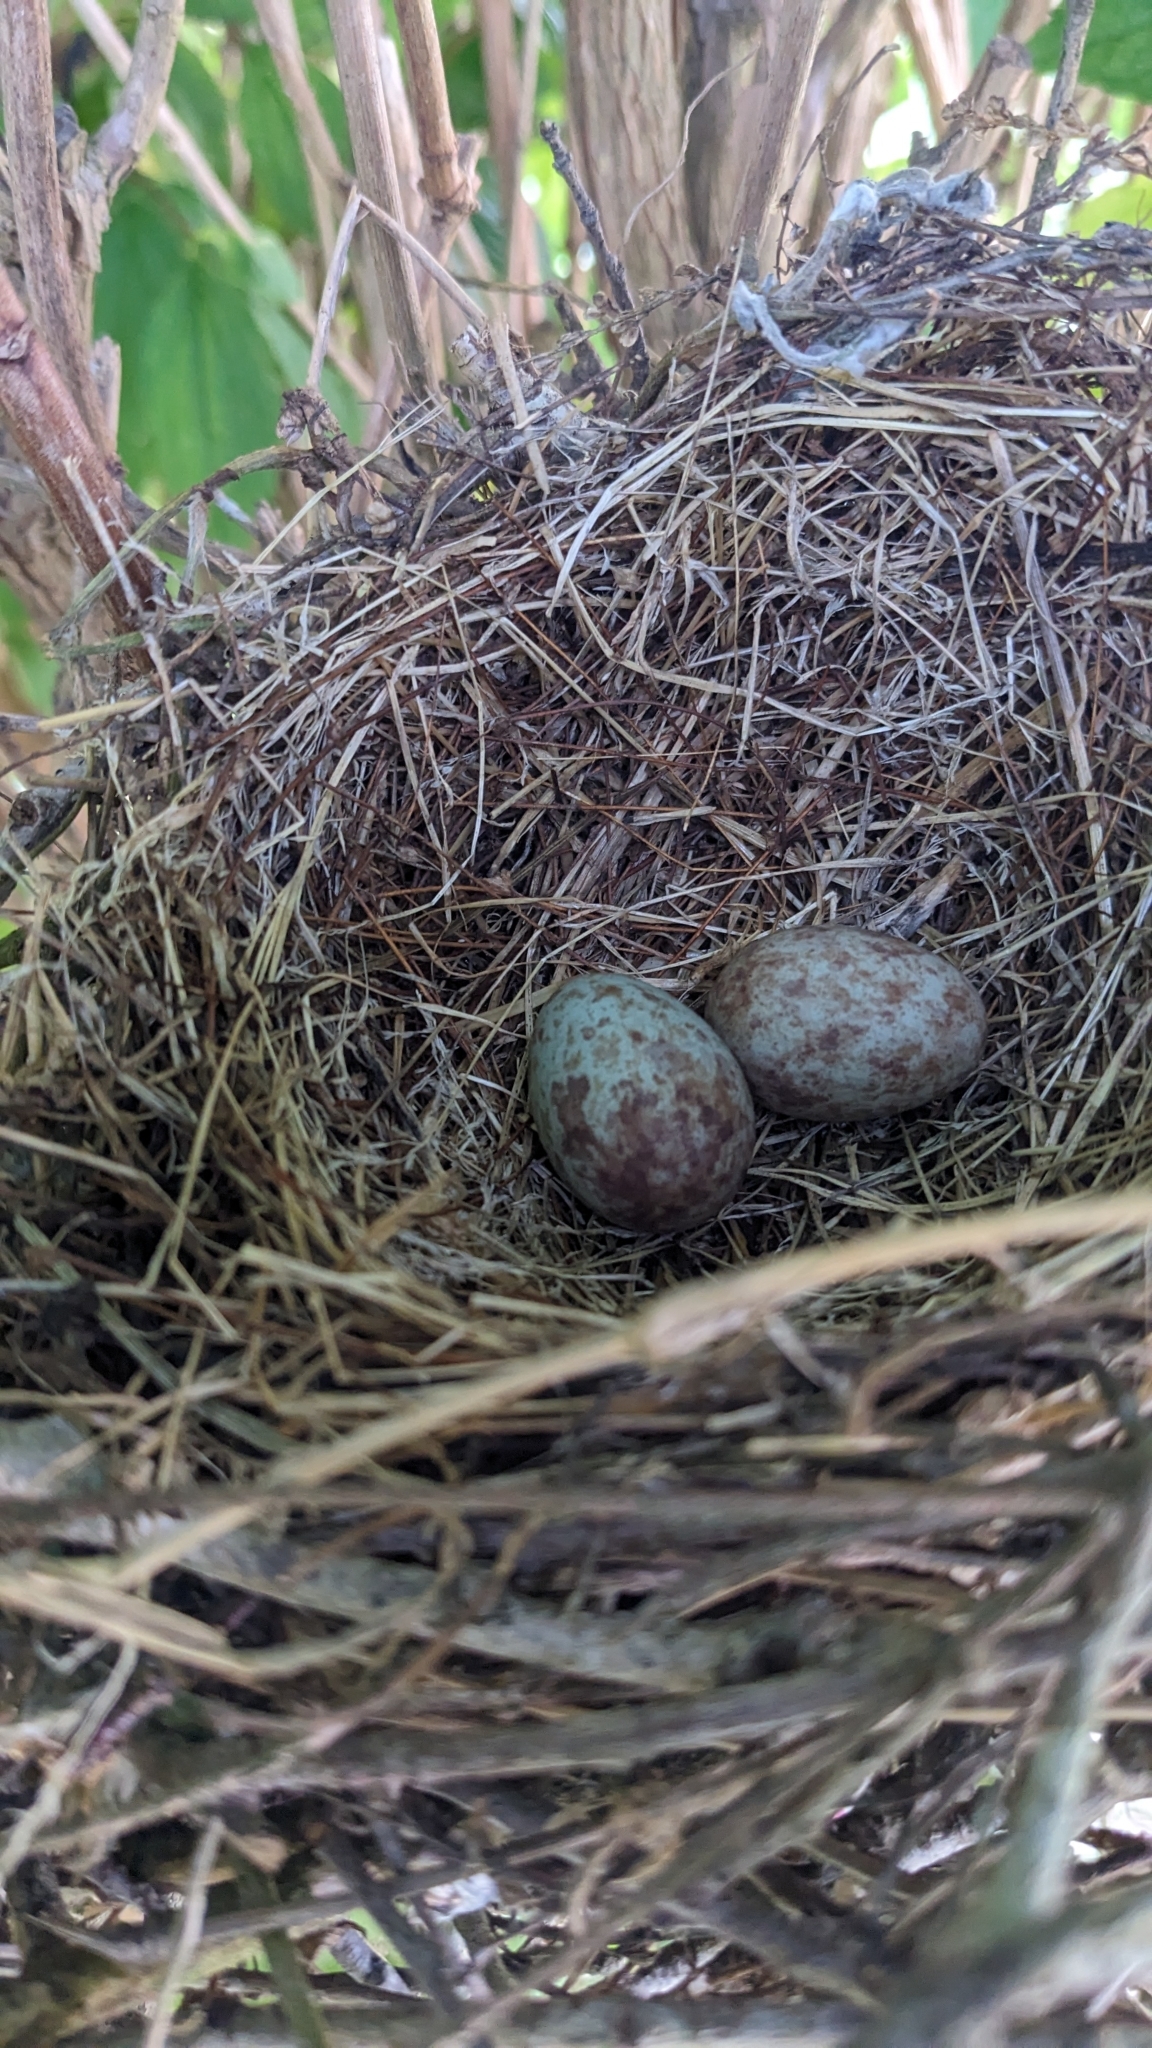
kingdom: Animalia
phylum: Chordata
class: Aves
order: Passeriformes
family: Mimidae
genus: Mimus
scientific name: Mimus polyglottos
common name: Northern mockingbird
